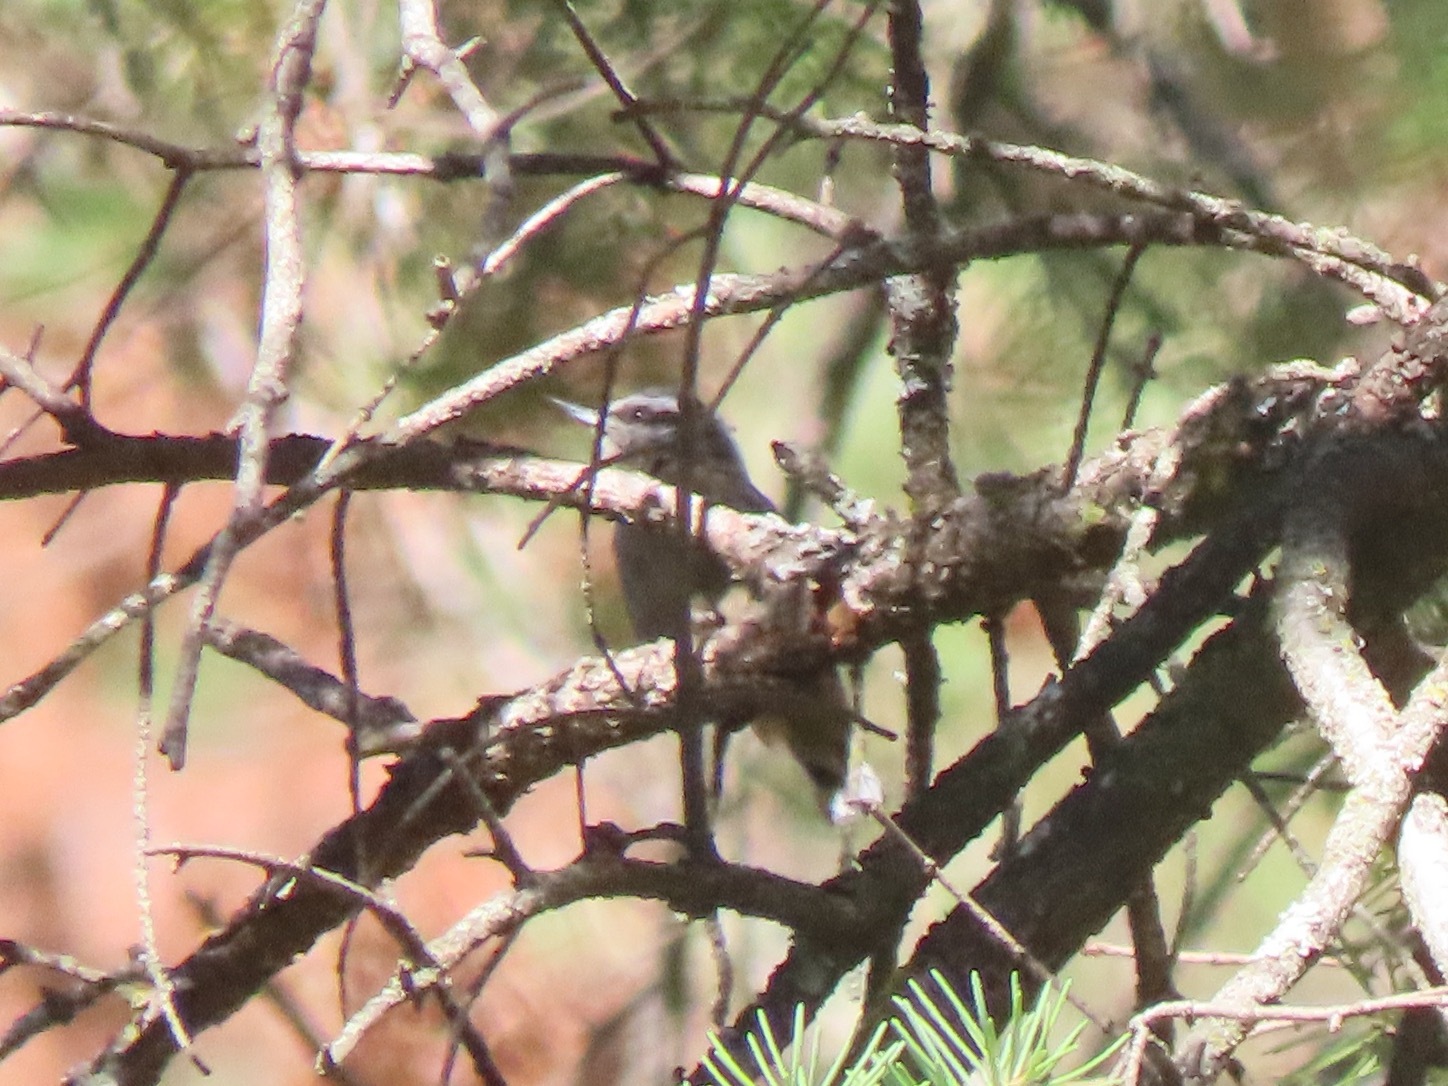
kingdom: Animalia
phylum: Chordata
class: Aves
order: Passeriformes
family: Sittidae
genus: Sitta
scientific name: Sitta canadensis
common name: Red-breasted nuthatch
